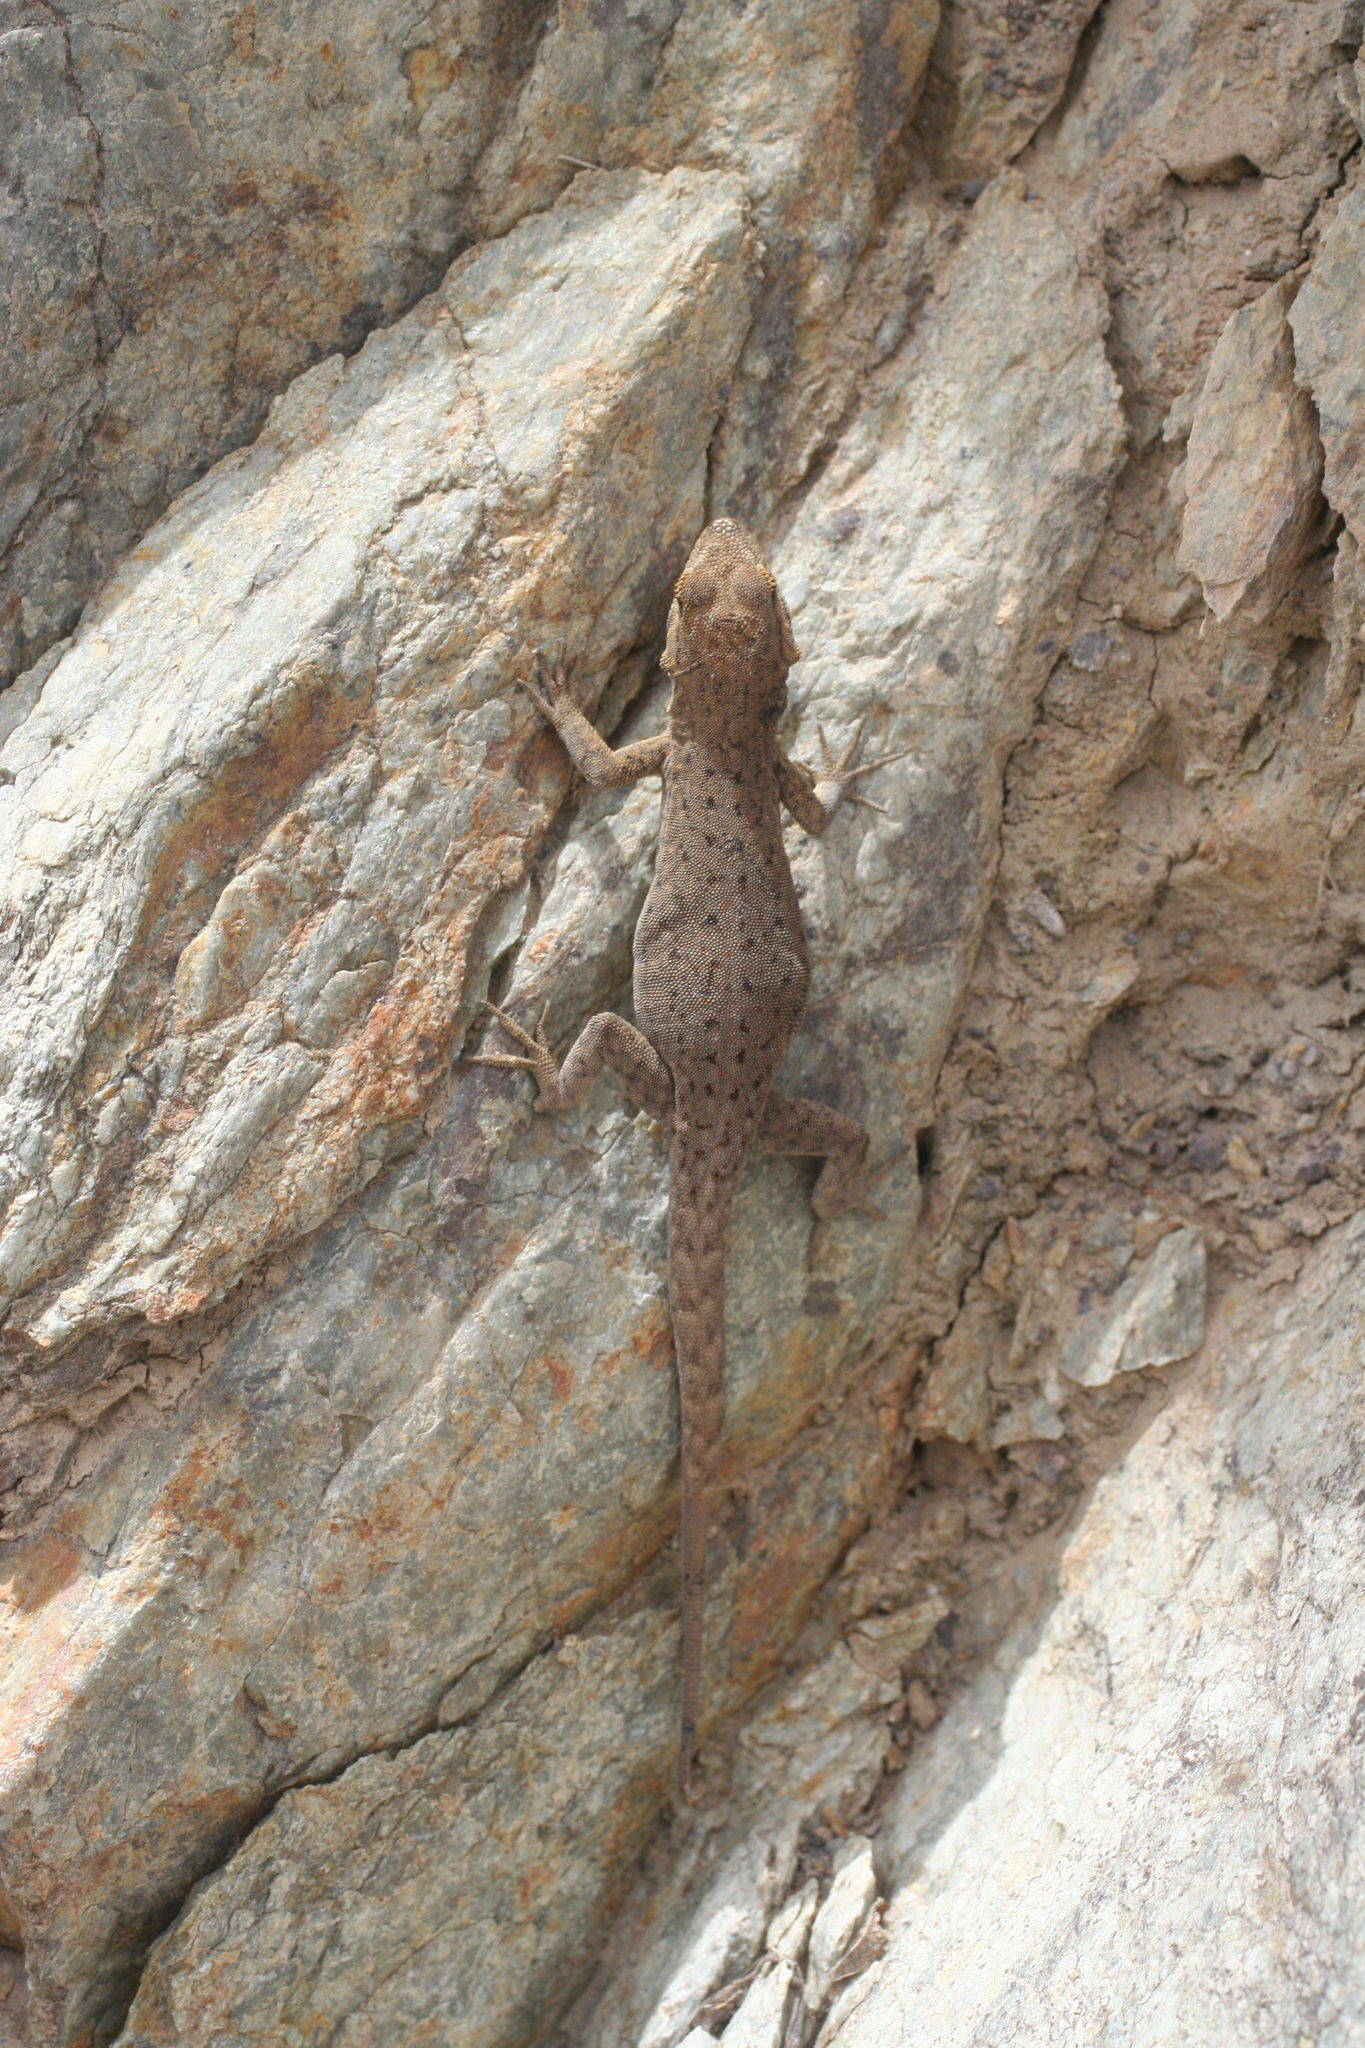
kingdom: Animalia
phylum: Chordata
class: Squamata
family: Sphaerodactylidae
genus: Quedenfeldtia
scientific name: Quedenfeldtia trachyblepharus
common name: Atlas day gecko
